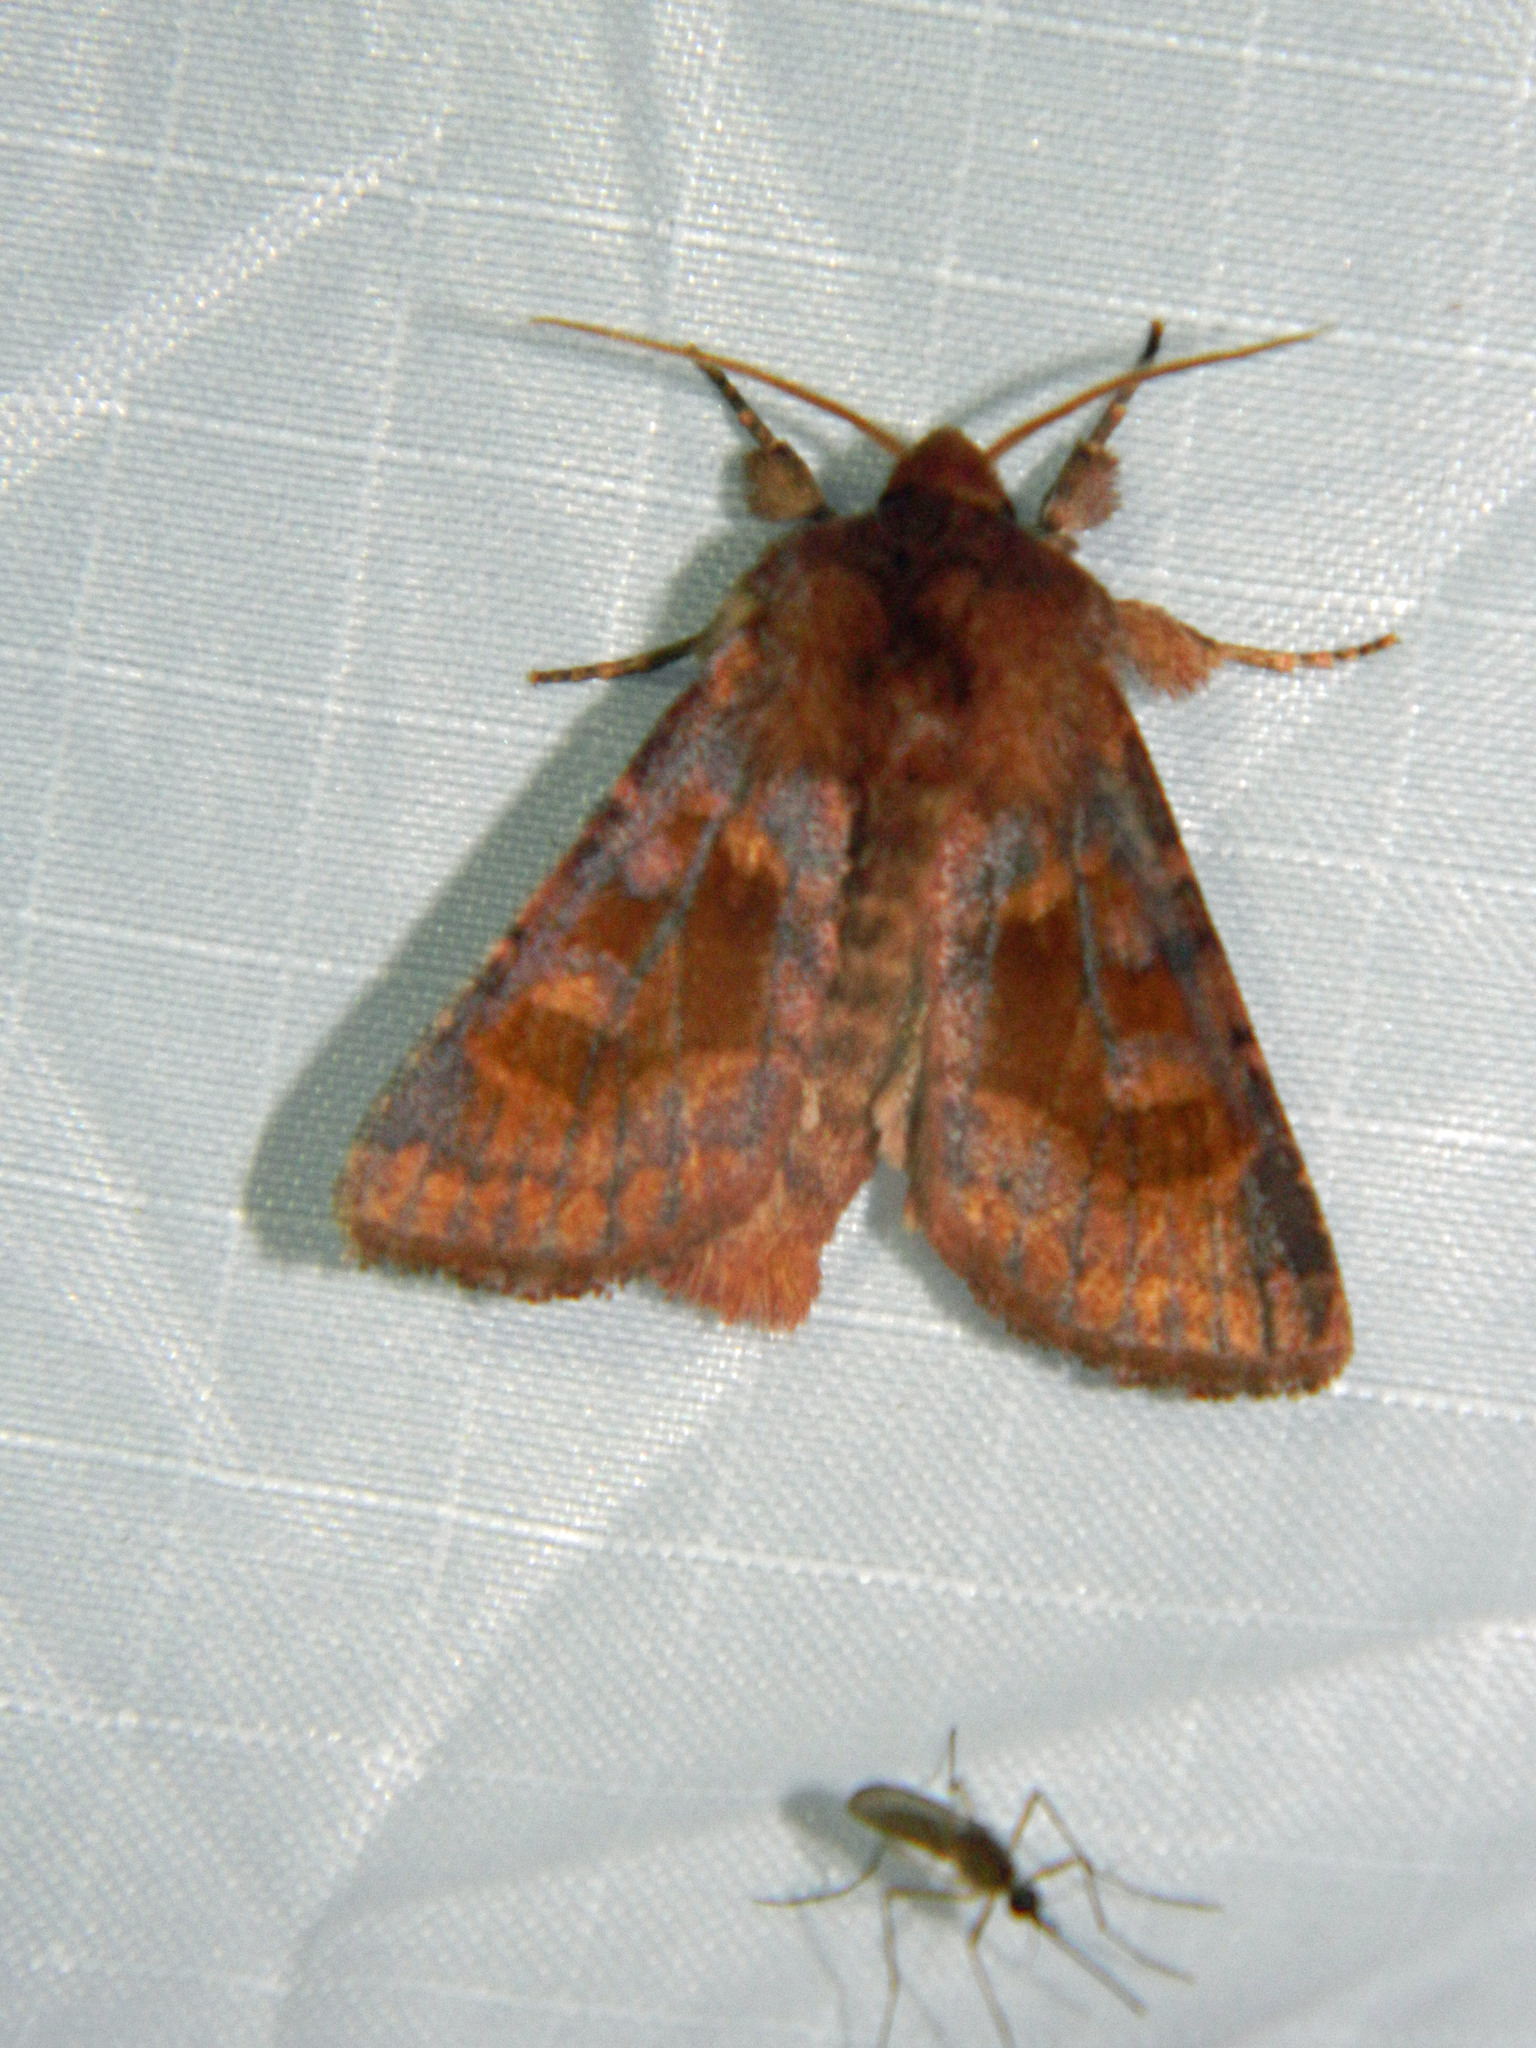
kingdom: Animalia
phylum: Arthropoda
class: Insecta
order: Lepidoptera
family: Noctuidae
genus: Nephelodes
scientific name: Nephelodes minians
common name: Bronzed cutworm
